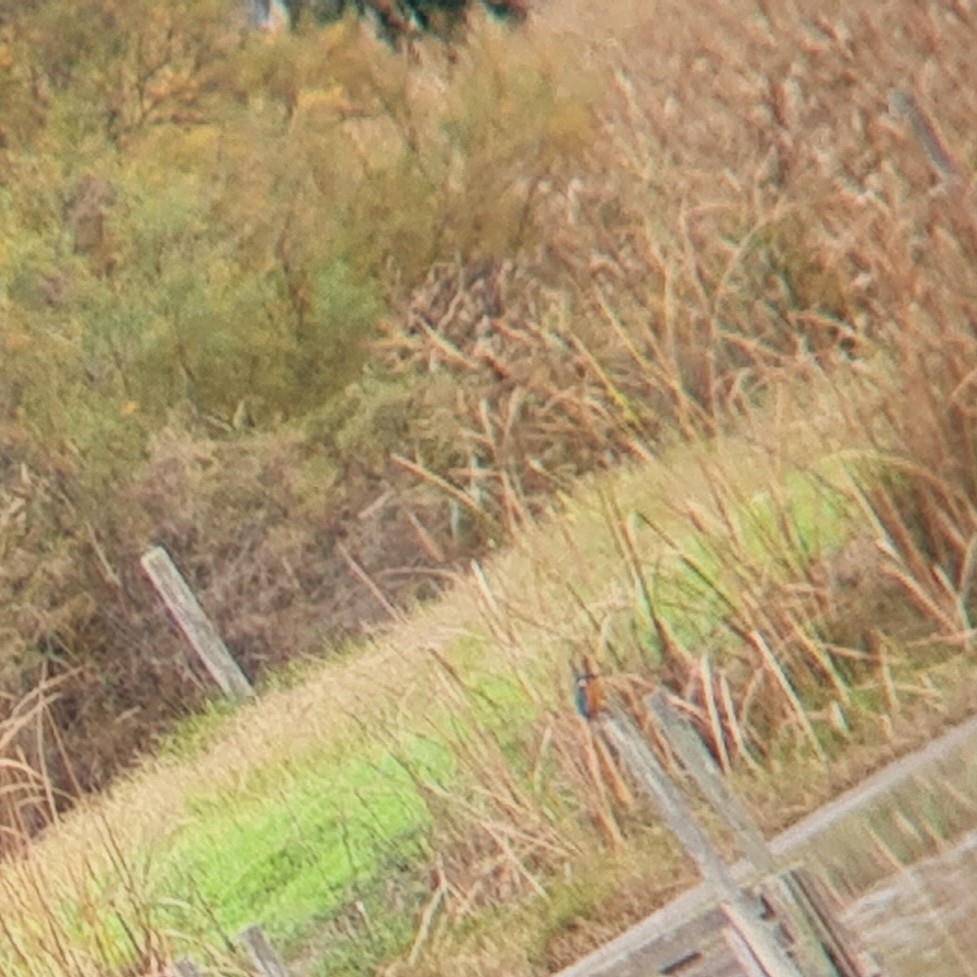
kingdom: Animalia
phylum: Chordata
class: Aves
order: Coraciiformes
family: Alcedinidae
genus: Alcedo
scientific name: Alcedo atthis
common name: Common kingfisher
